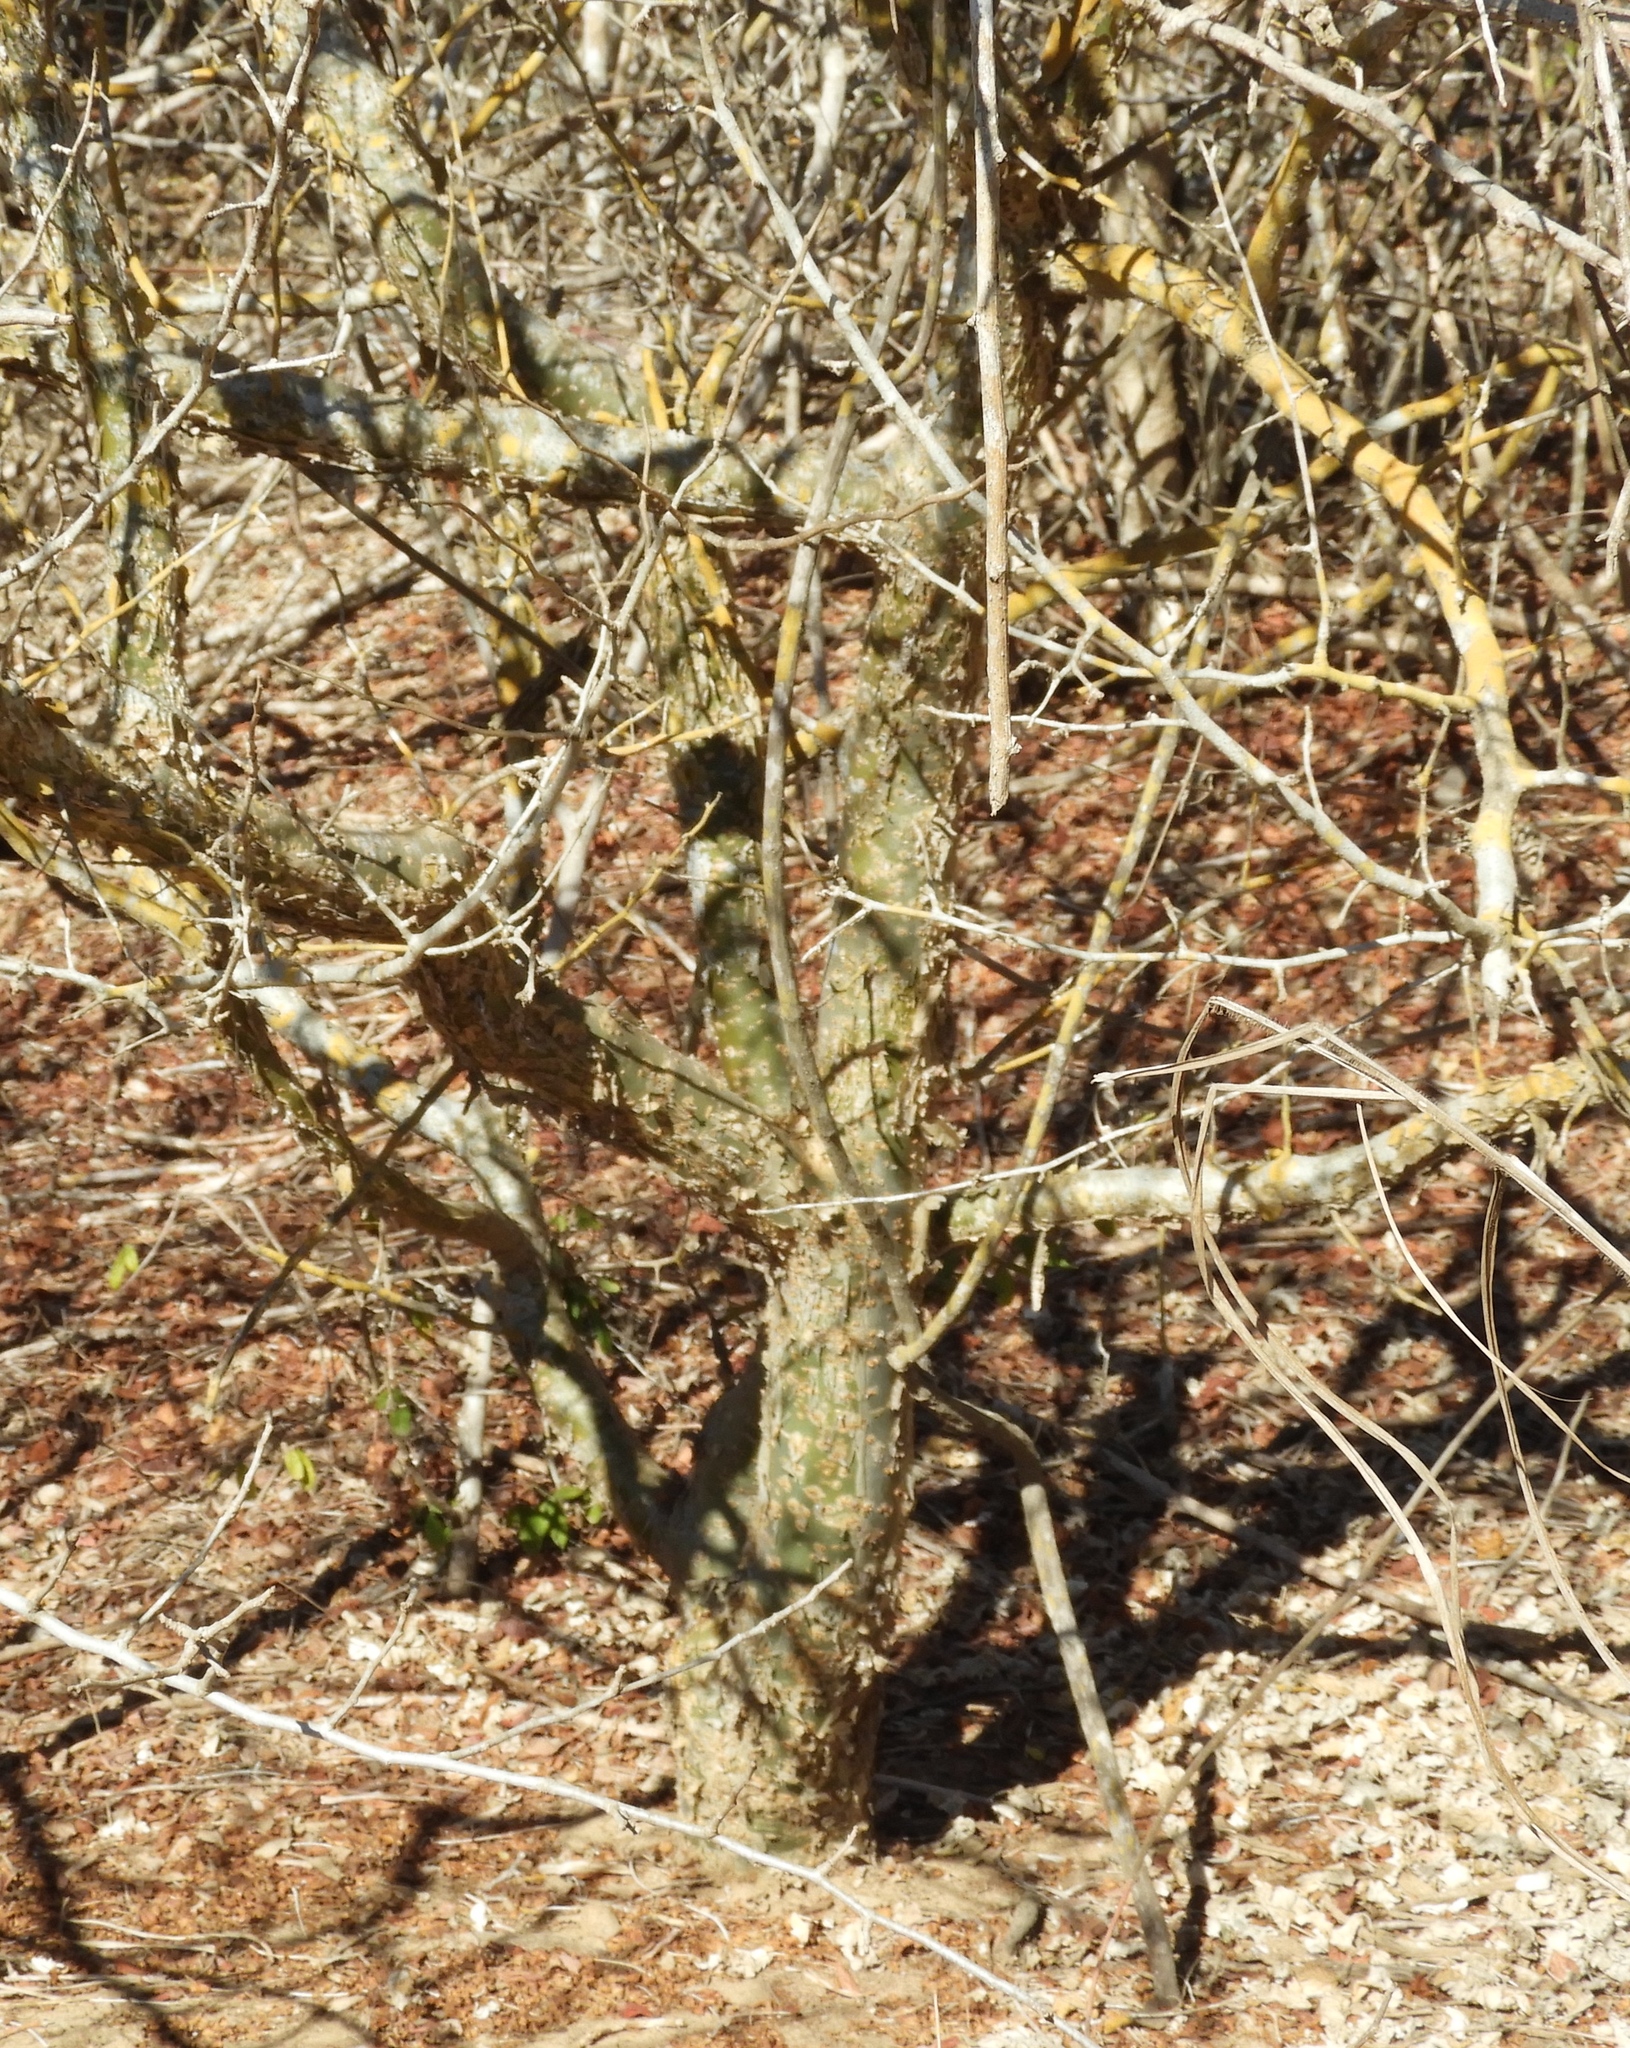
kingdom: Plantae
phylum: Tracheophyta
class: Magnoliopsida
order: Sapindales
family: Burseraceae
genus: Bursera
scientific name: Bursera
